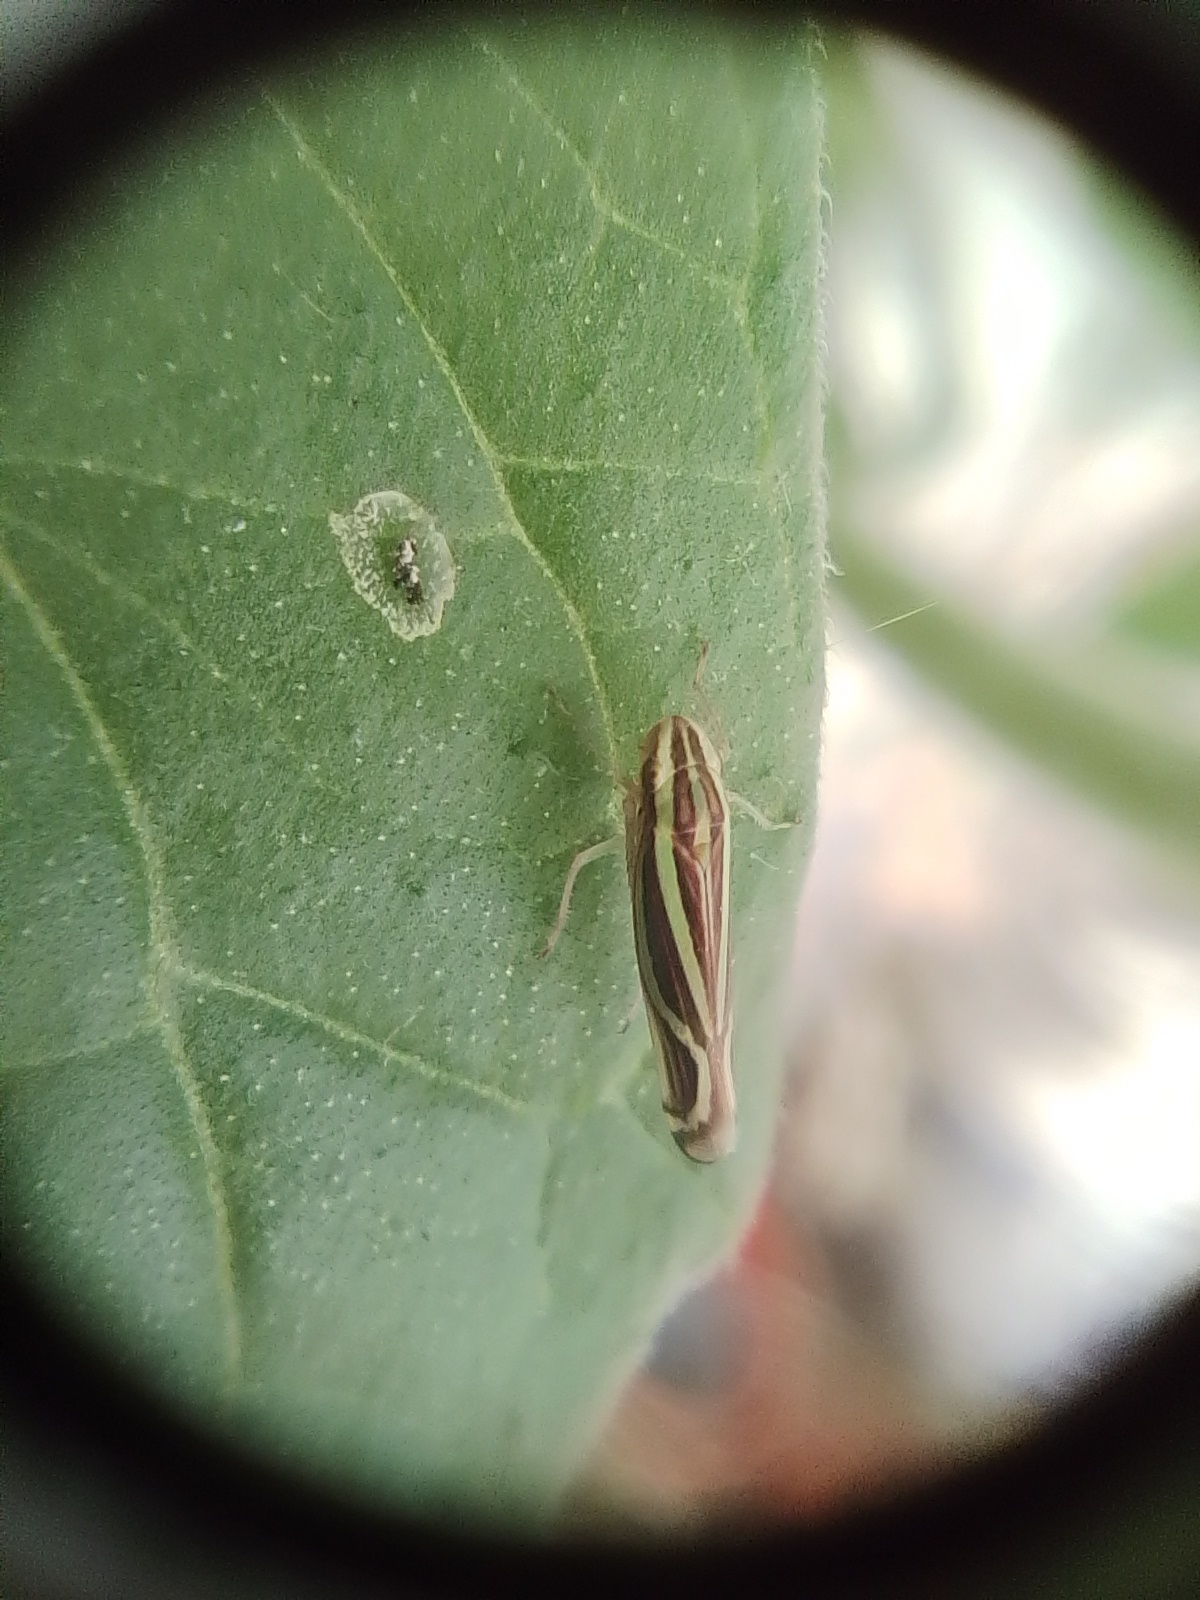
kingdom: Animalia
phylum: Arthropoda
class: Insecta
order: Hemiptera
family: Cicadellidae
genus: Sibovia
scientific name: Sibovia sagata
